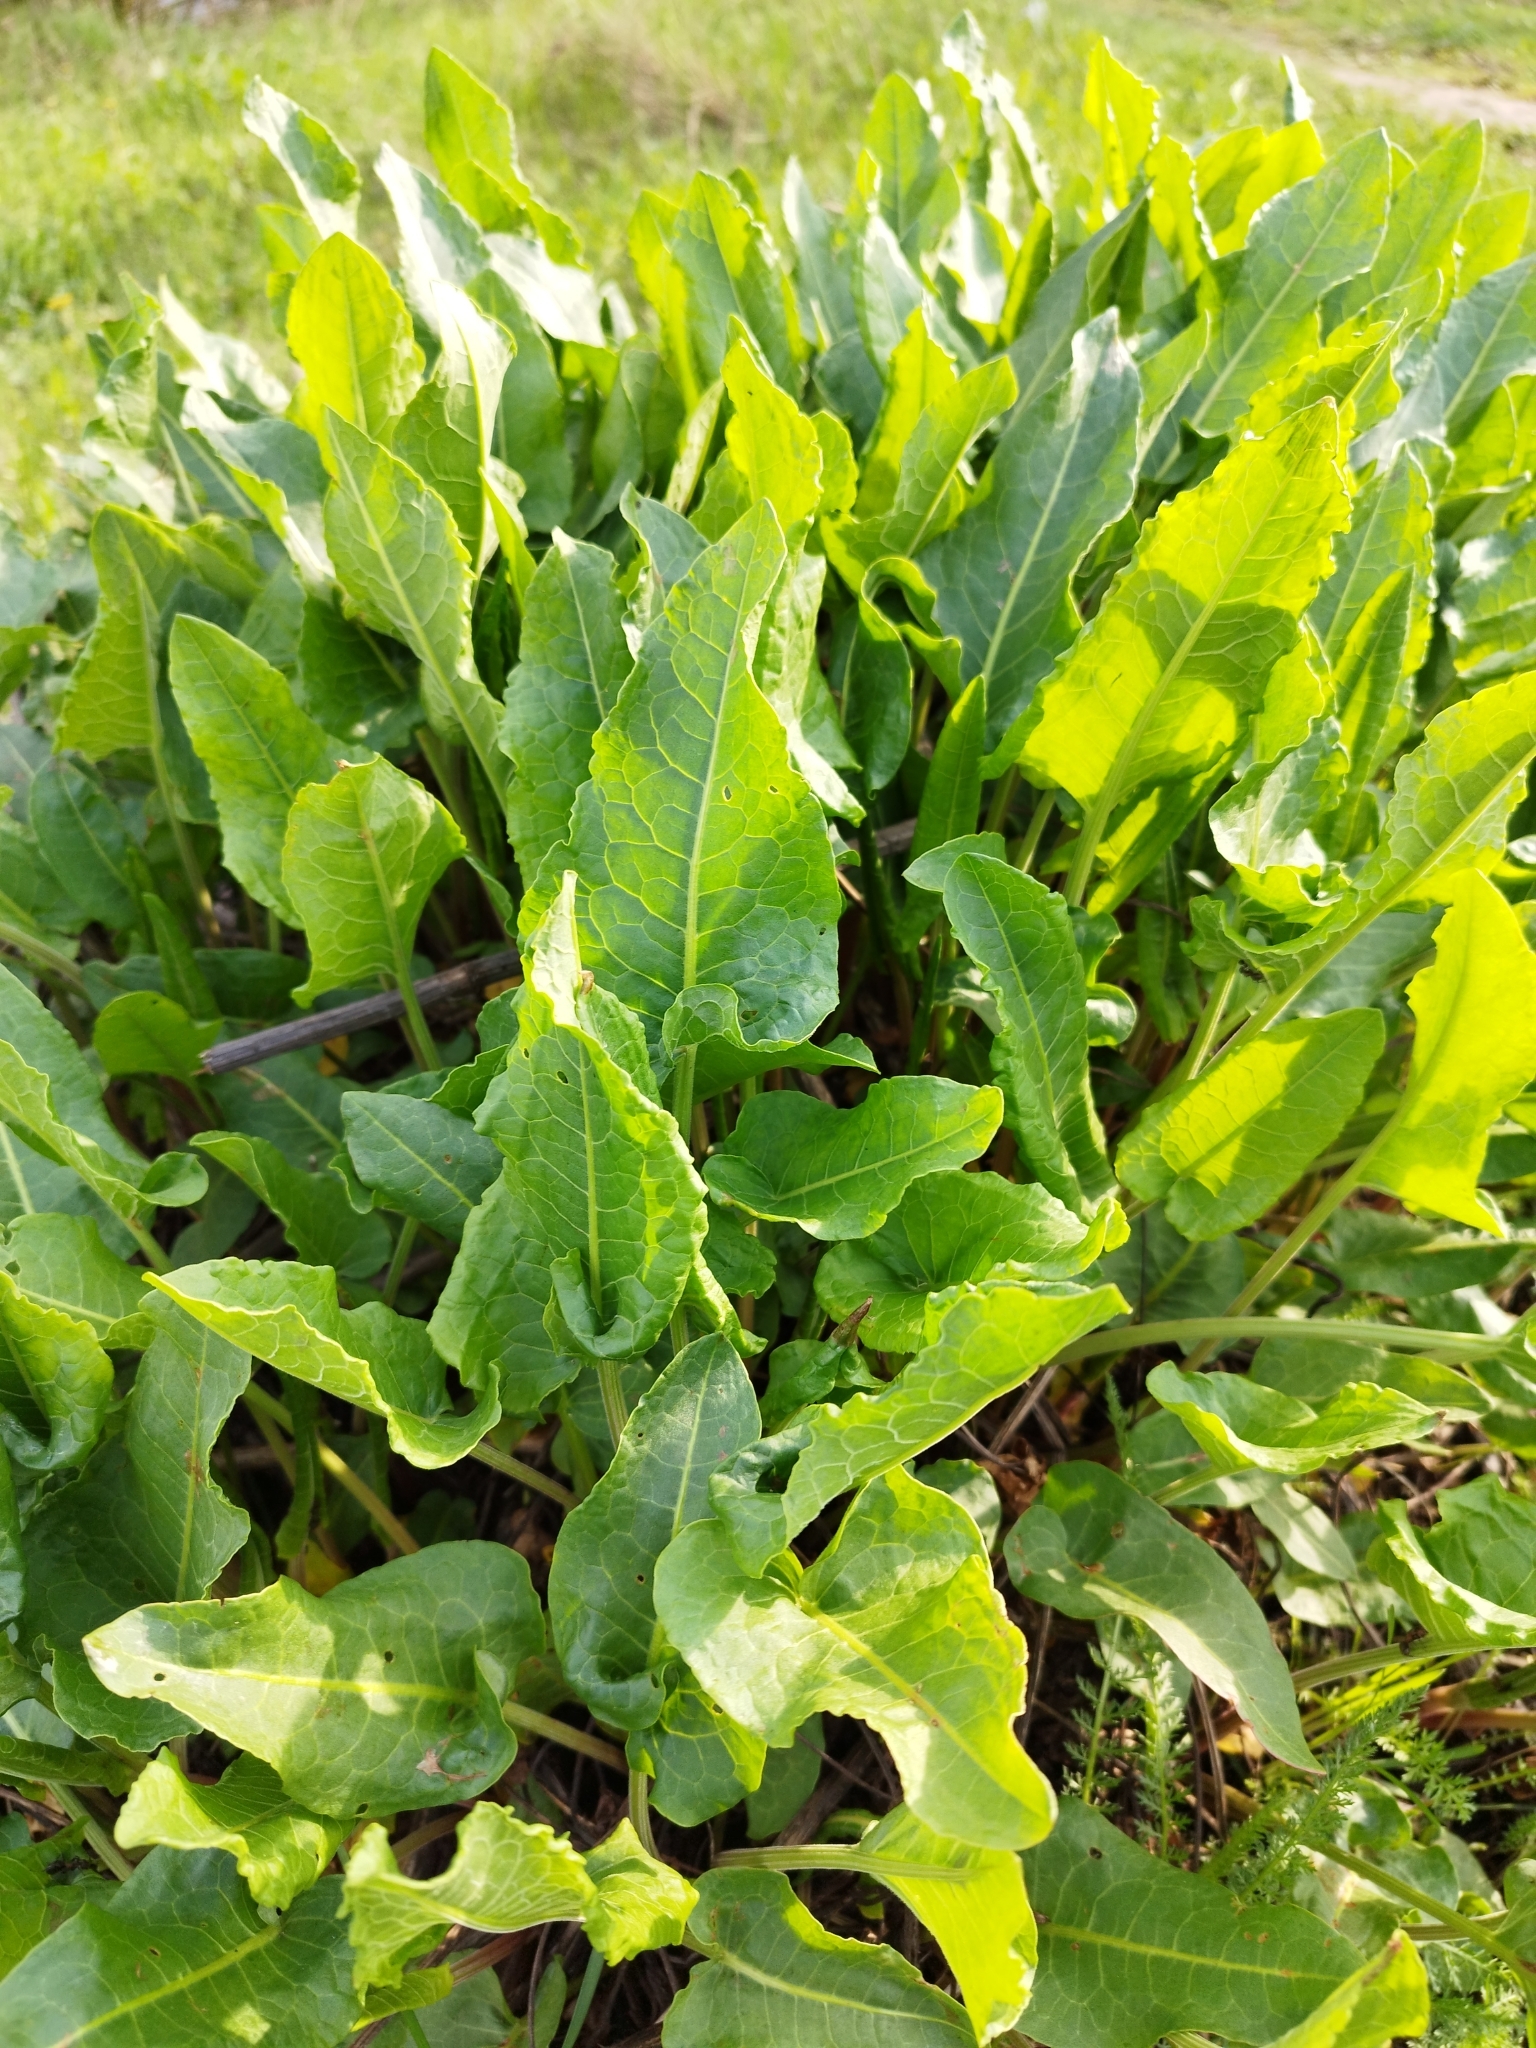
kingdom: Plantae
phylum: Tracheophyta
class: Magnoliopsida
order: Caryophyllales
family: Polygonaceae
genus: Rumex
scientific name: Rumex confertus
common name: Russian dock
